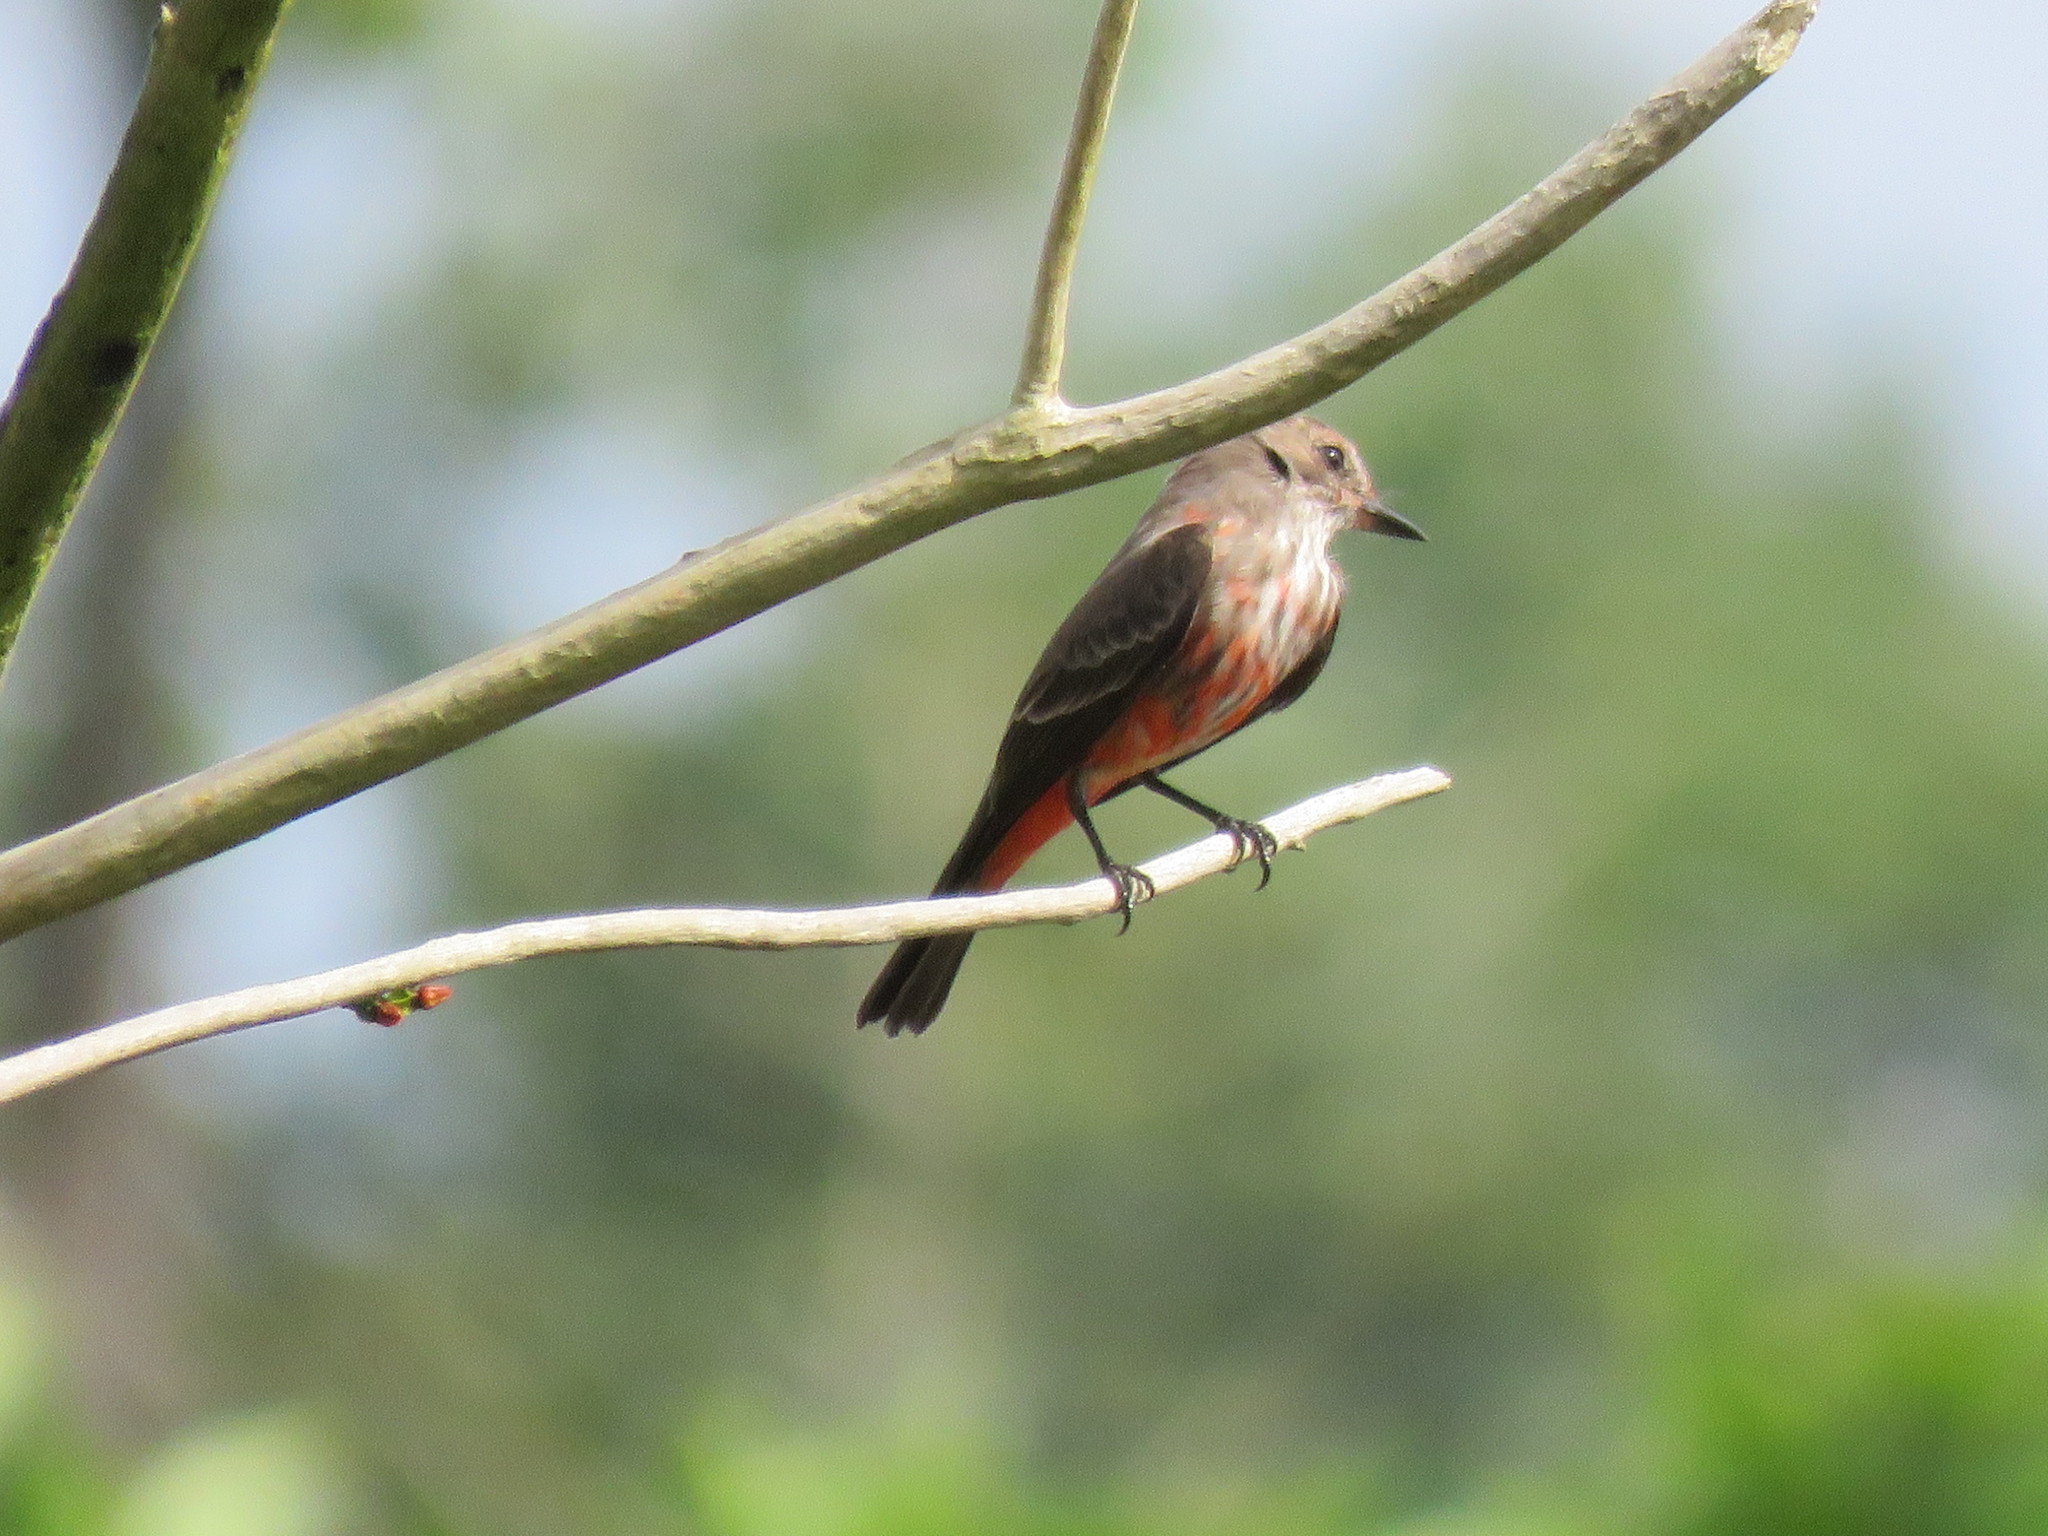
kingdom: Animalia
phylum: Chordata
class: Aves
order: Passeriformes
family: Tyrannidae
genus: Pyrocephalus
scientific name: Pyrocephalus rubinus
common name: Vermilion flycatcher
